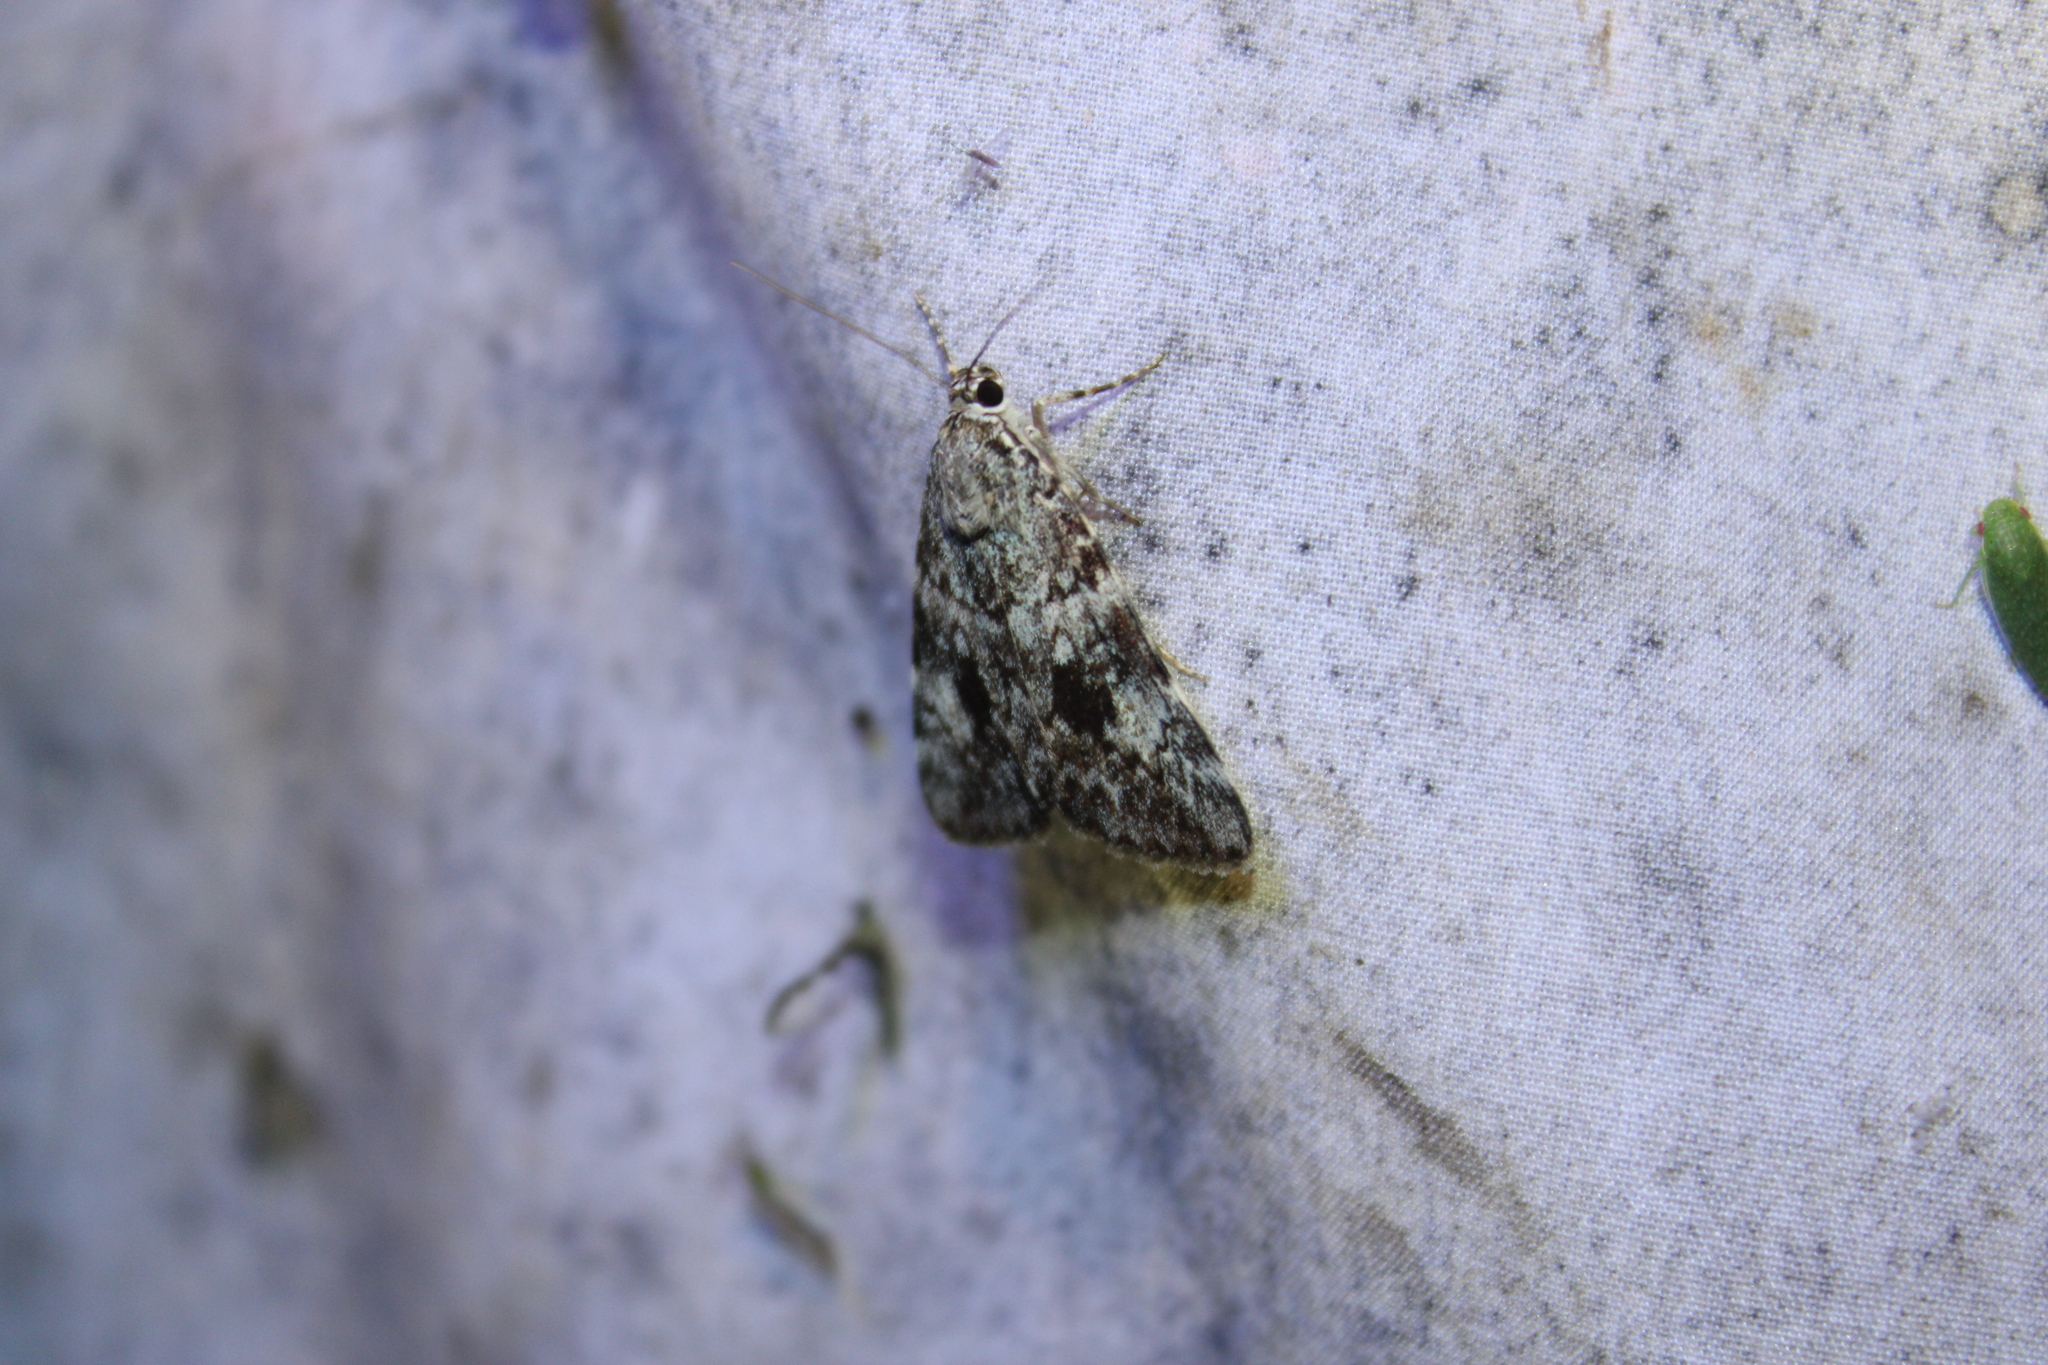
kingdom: Animalia
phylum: Arthropoda
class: Insecta
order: Lepidoptera
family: Erebidae
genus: Catocala
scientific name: Catocala lineella
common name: Little lined underwing
